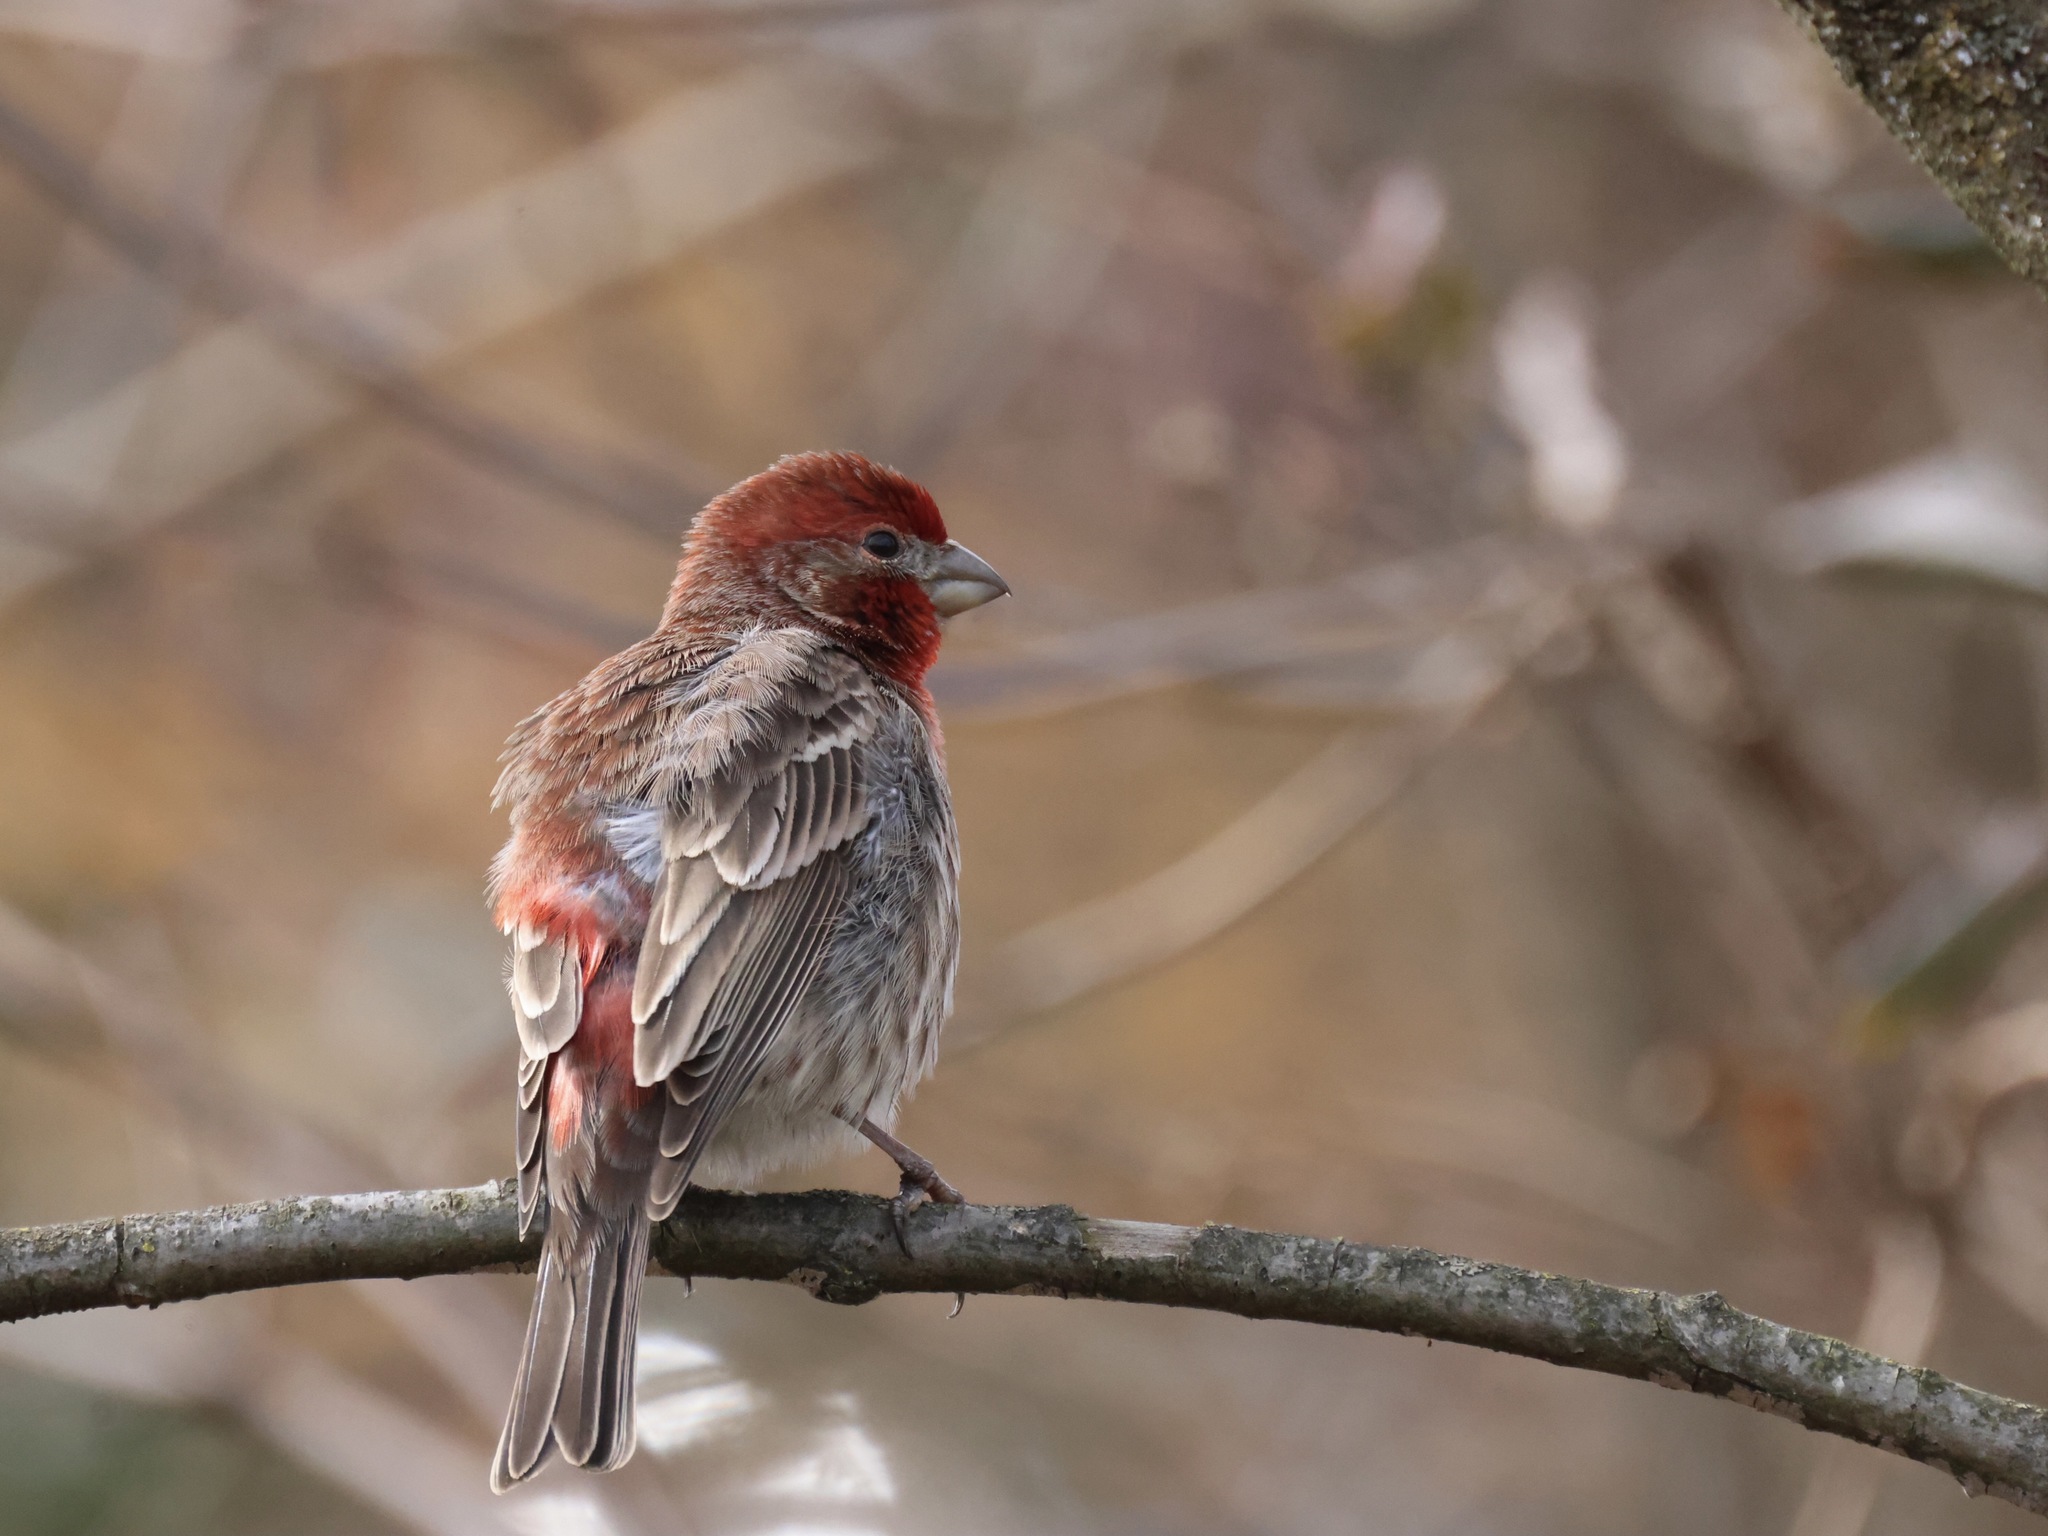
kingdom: Animalia
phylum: Chordata
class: Aves
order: Passeriformes
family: Fringillidae
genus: Haemorhous
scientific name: Haemorhous mexicanus
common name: House finch
